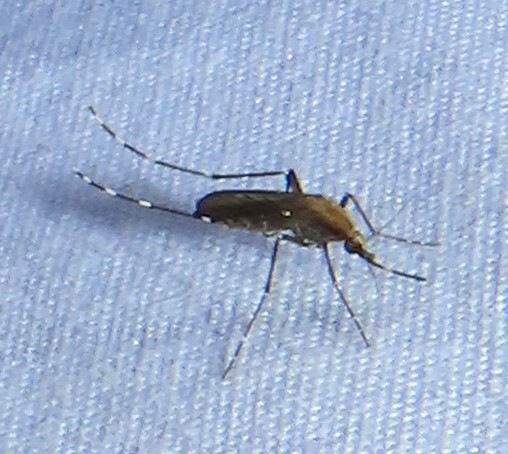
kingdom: Animalia
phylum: Arthropoda
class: Insecta
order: Diptera
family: Culicidae
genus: Aedes
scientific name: Aedes mitchellae
